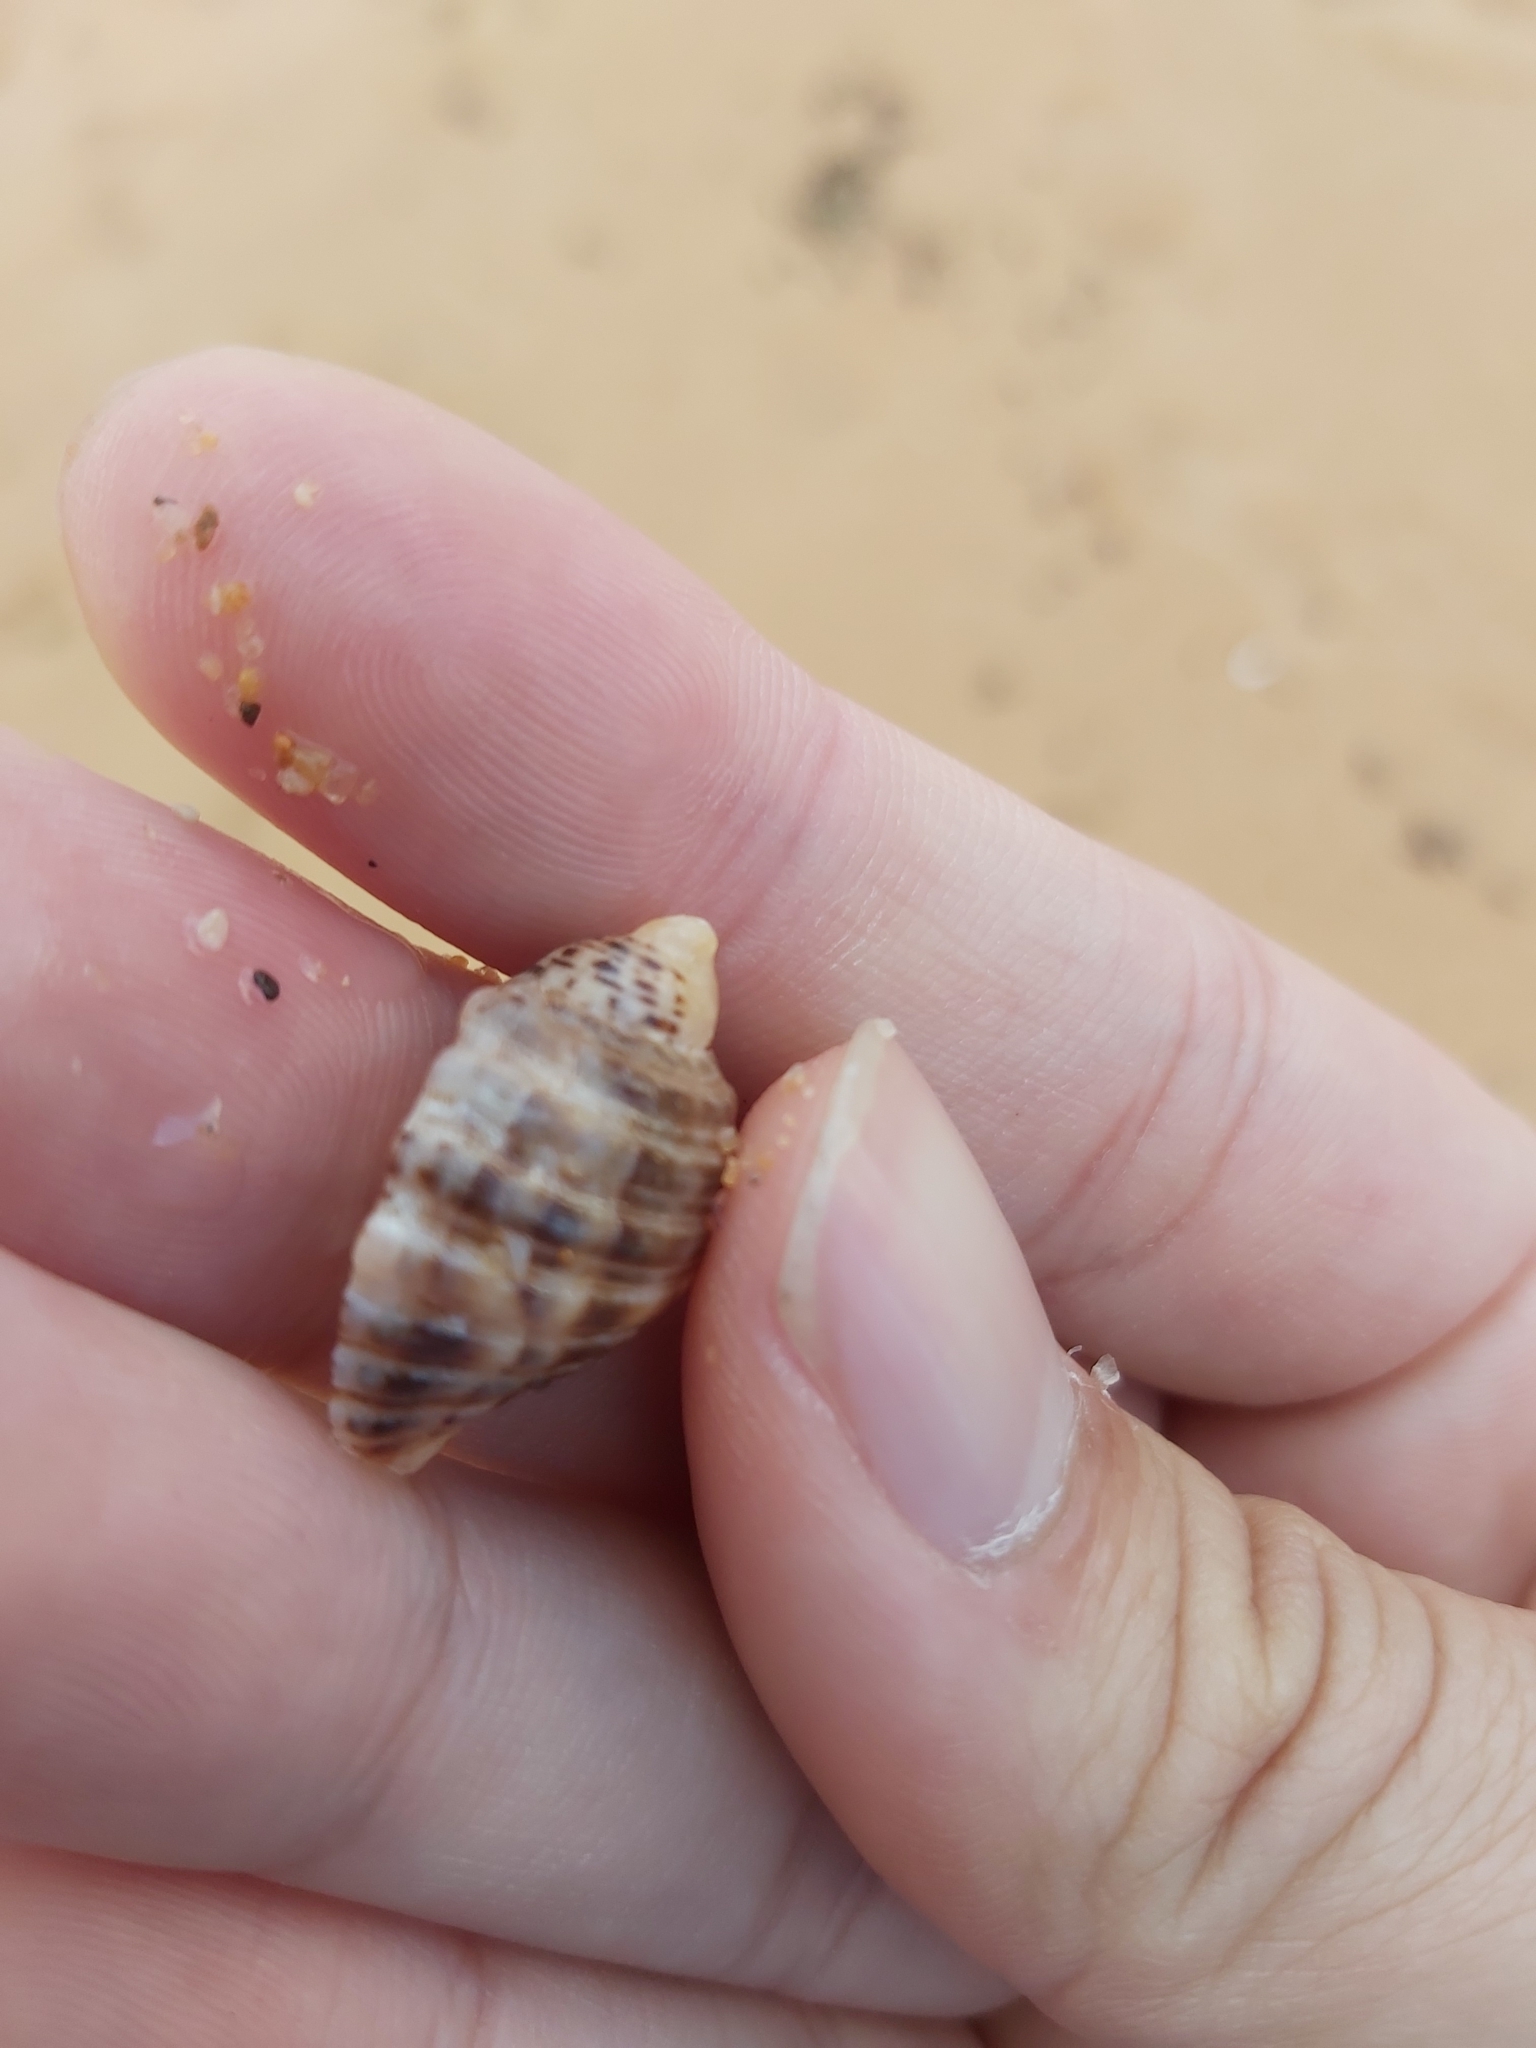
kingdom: Animalia
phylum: Mollusca
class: Gastropoda
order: Neogastropoda
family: Muricidae
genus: Dicathais
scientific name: Dicathais orbita
